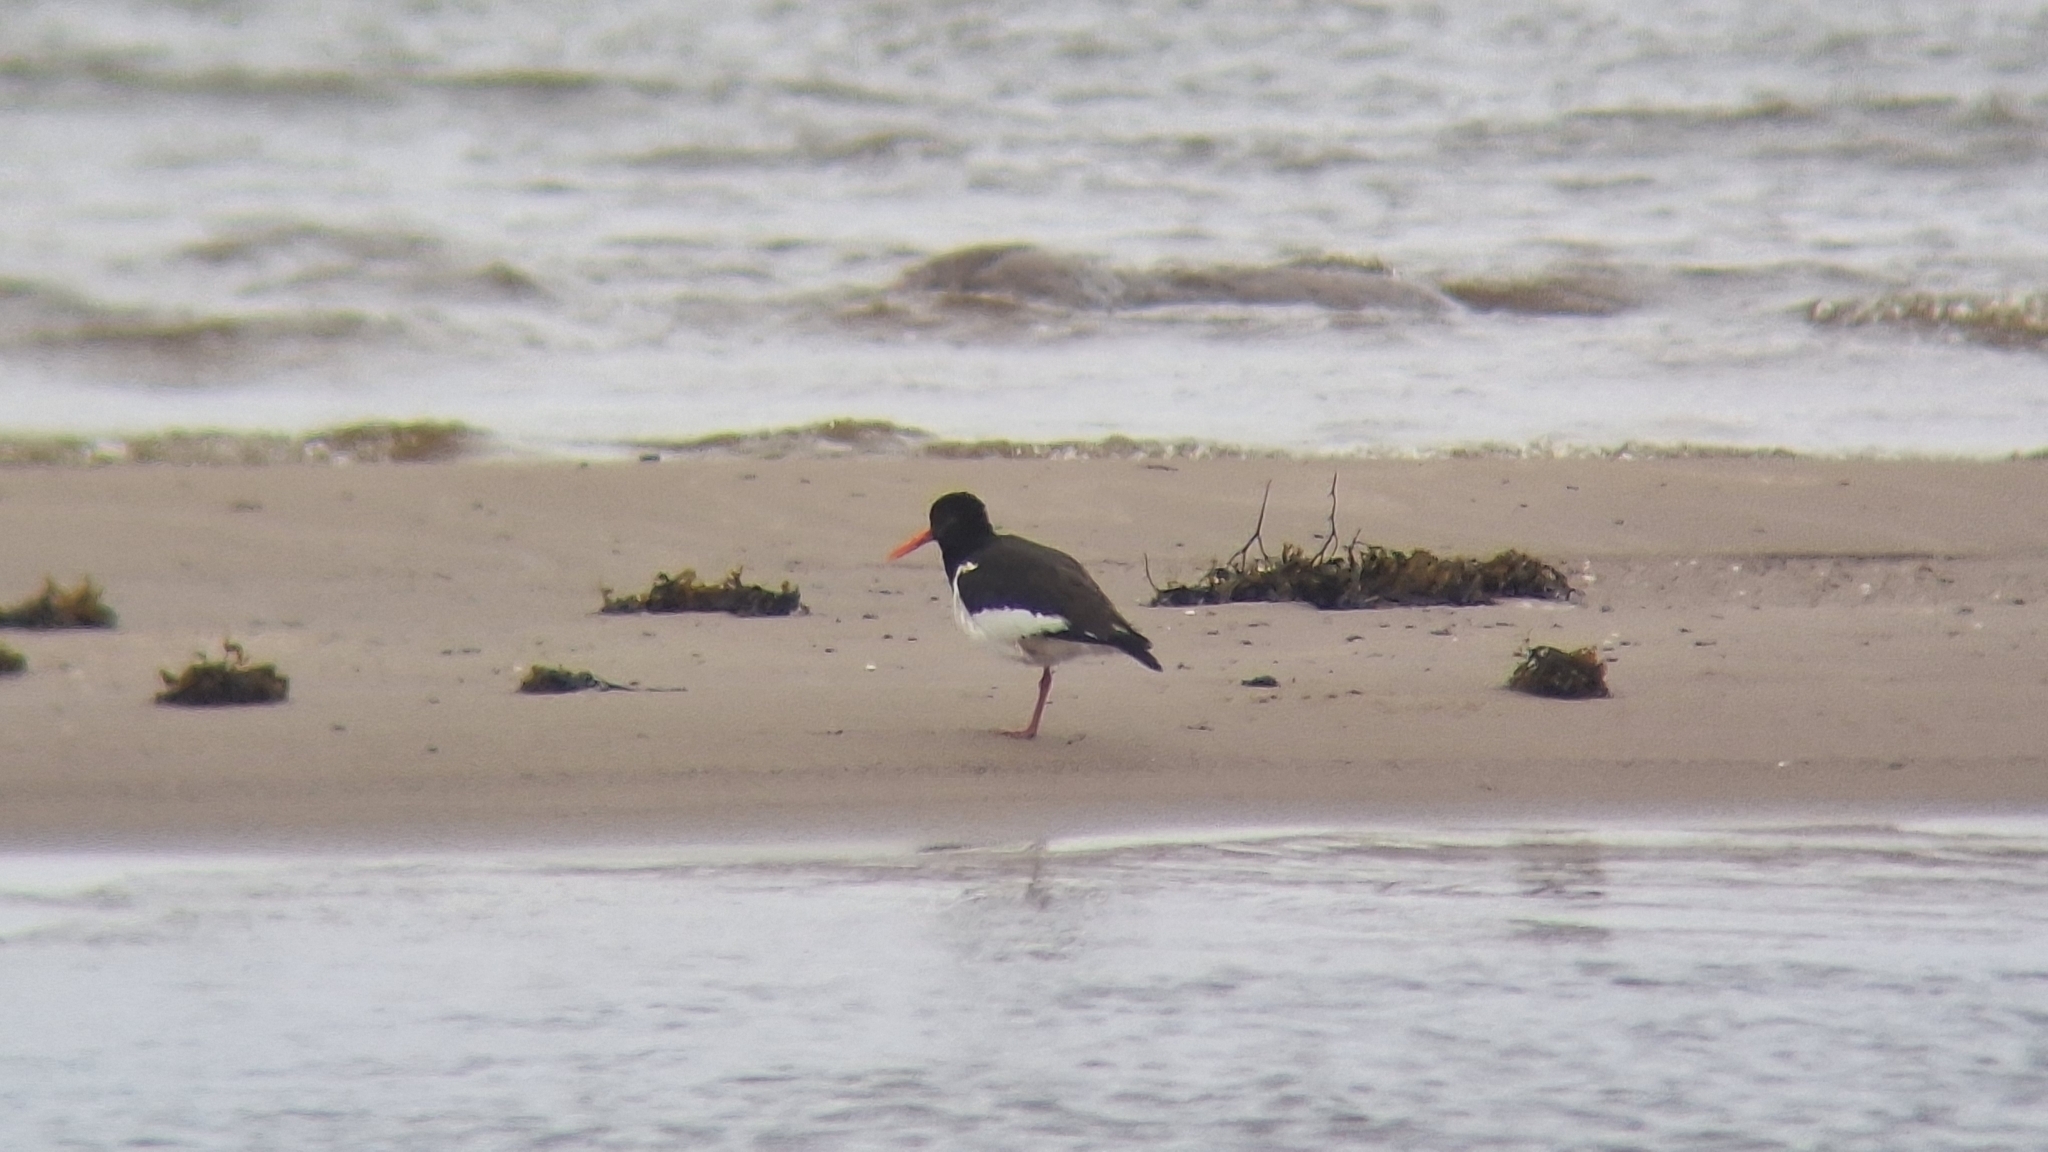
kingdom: Animalia
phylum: Chordata
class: Aves
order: Charadriiformes
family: Haematopodidae
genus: Haematopus
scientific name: Haematopus ostralegus
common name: Eurasian oystercatcher
